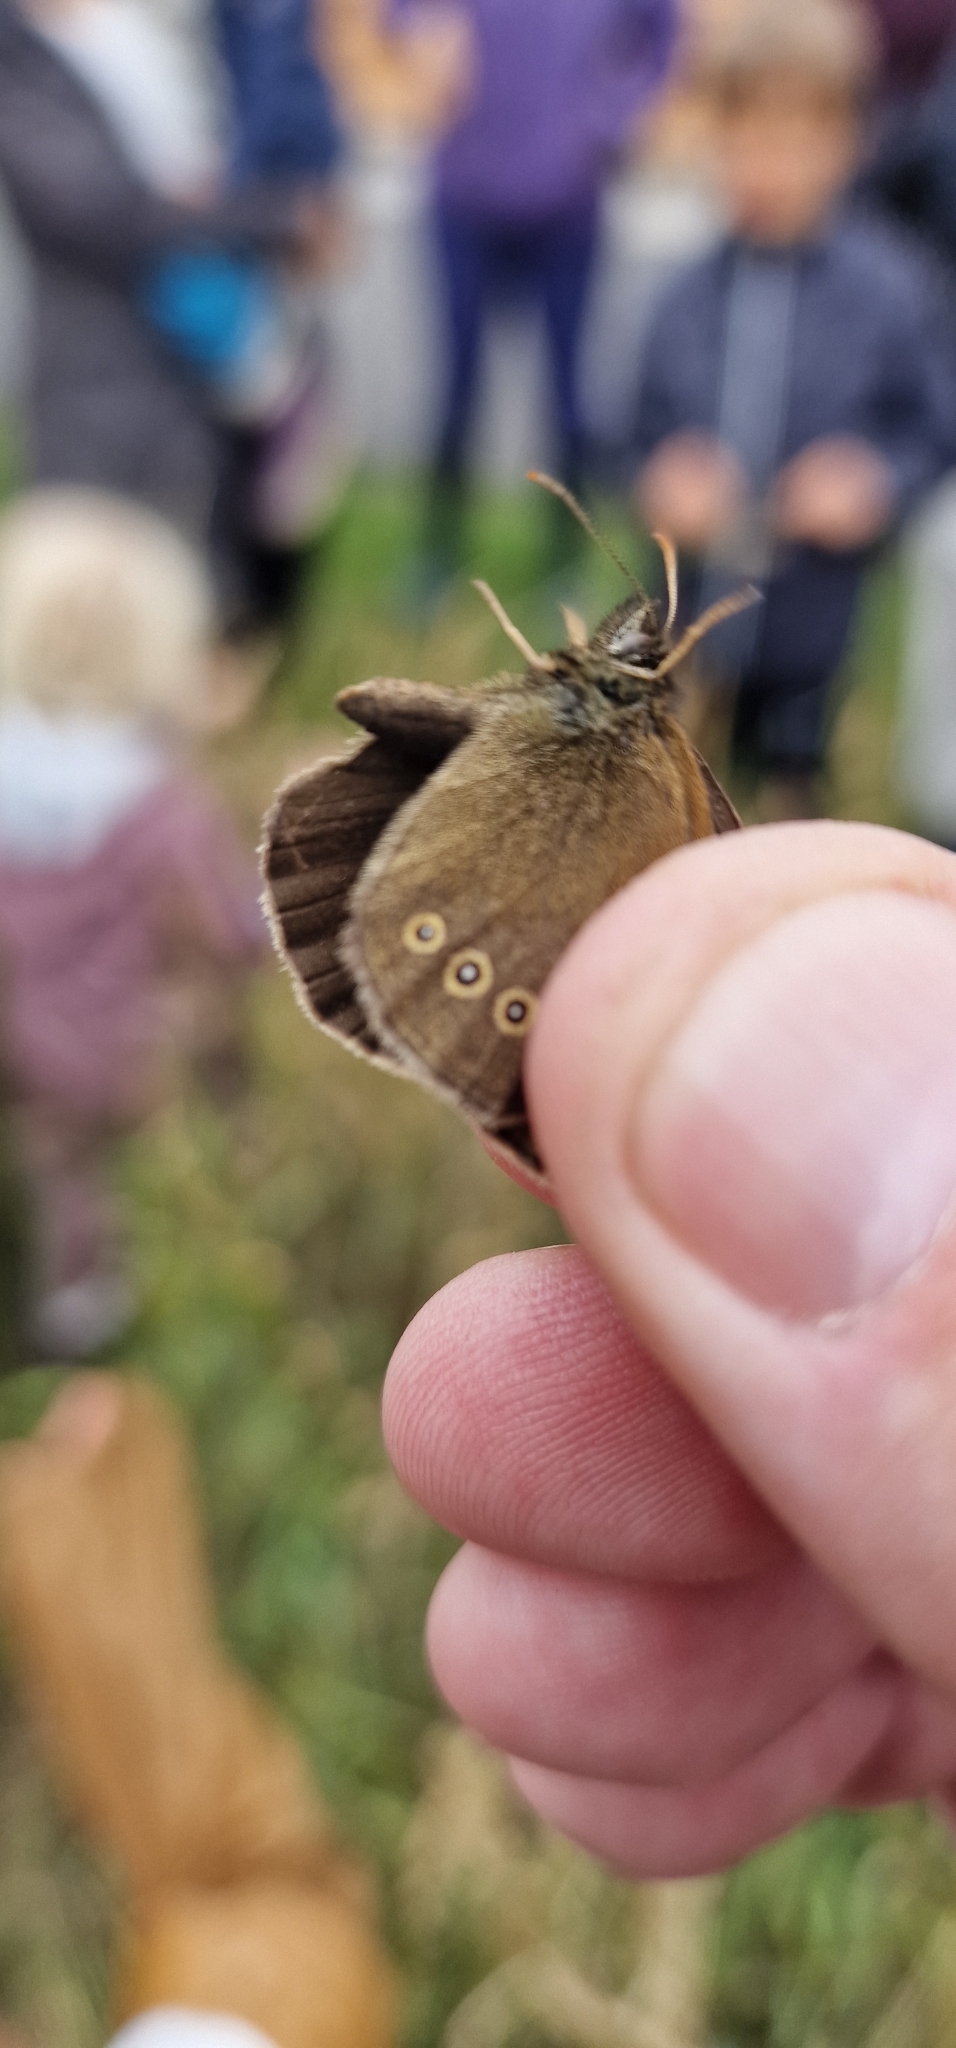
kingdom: Animalia
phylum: Arthropoda
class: Insecta
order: Lepidoptera
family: Nymphalidae
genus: Aphantopus
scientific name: Aphantopus hyperantus
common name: Ringlet
